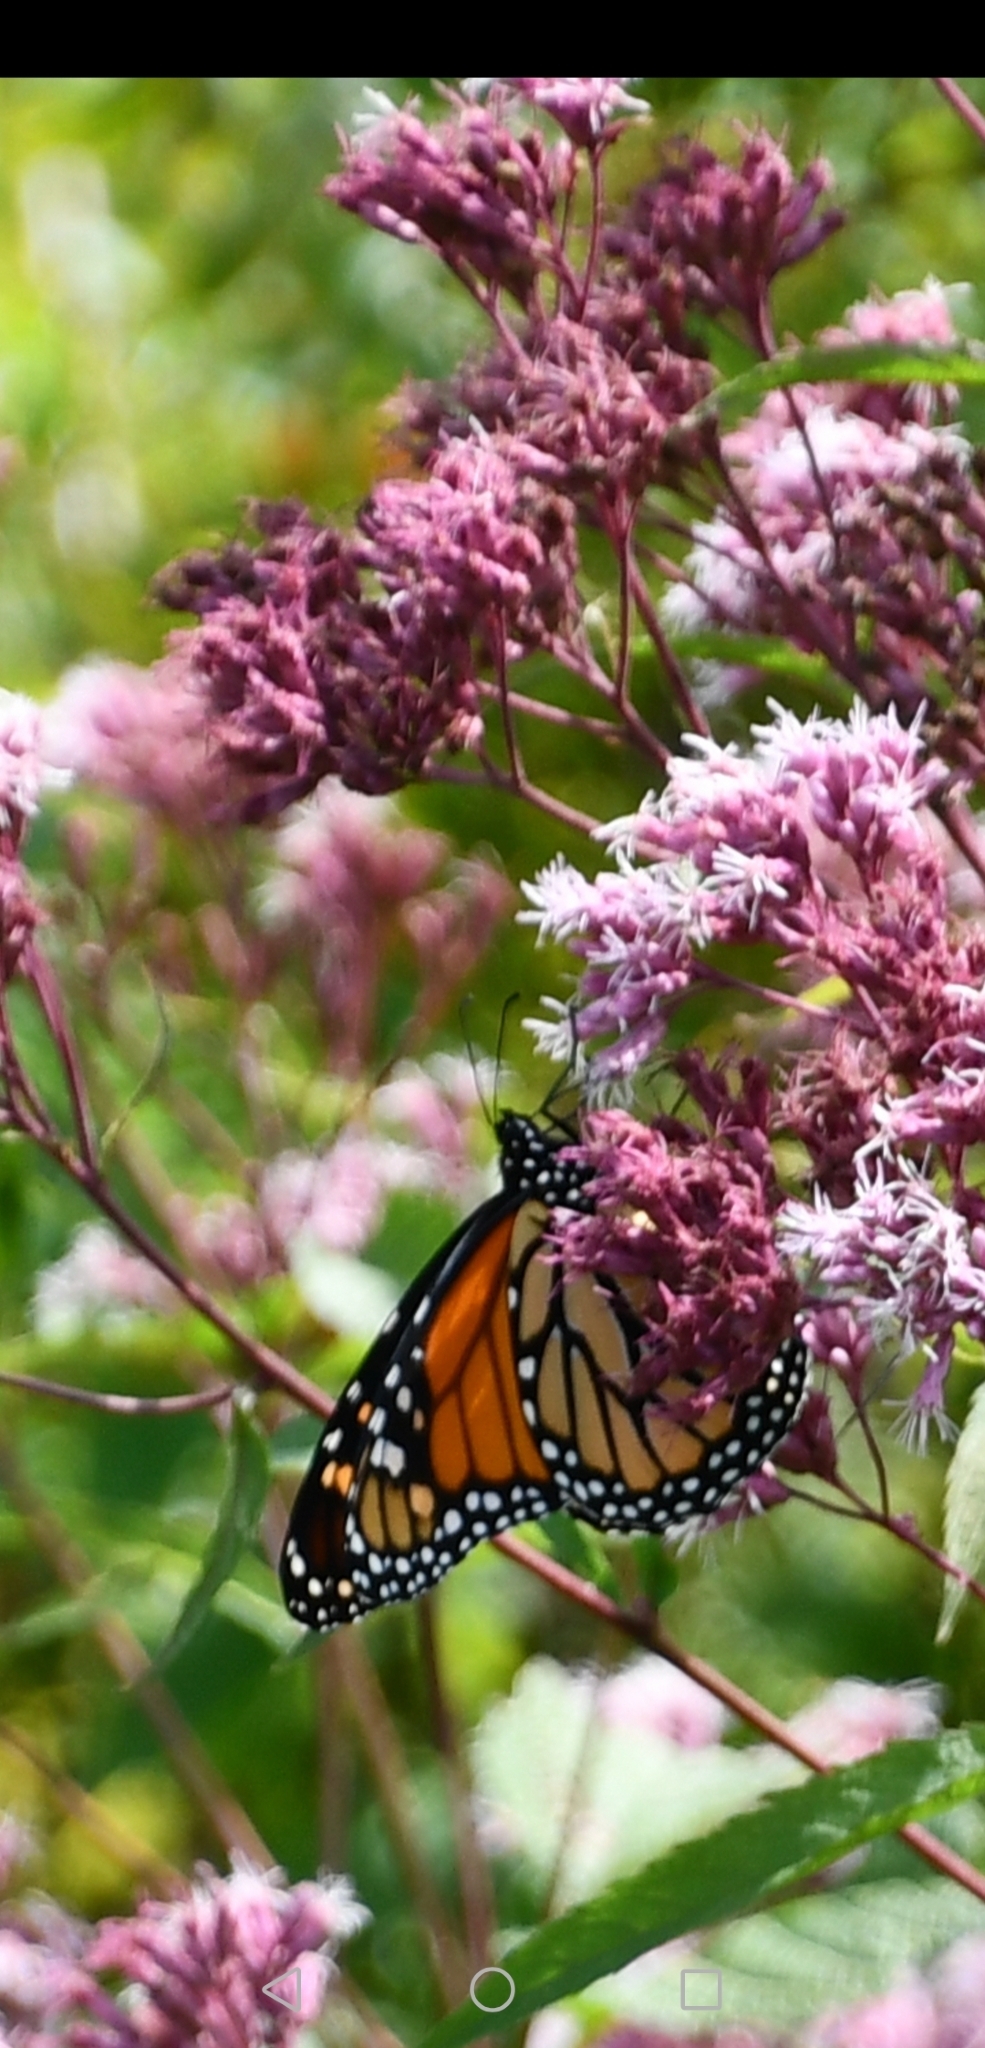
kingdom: Animalia
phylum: Arthropoda
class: Insecta
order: Lepidoptera
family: Nymphalidae
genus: Danaus
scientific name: Danaus plexippus
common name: Monarch
